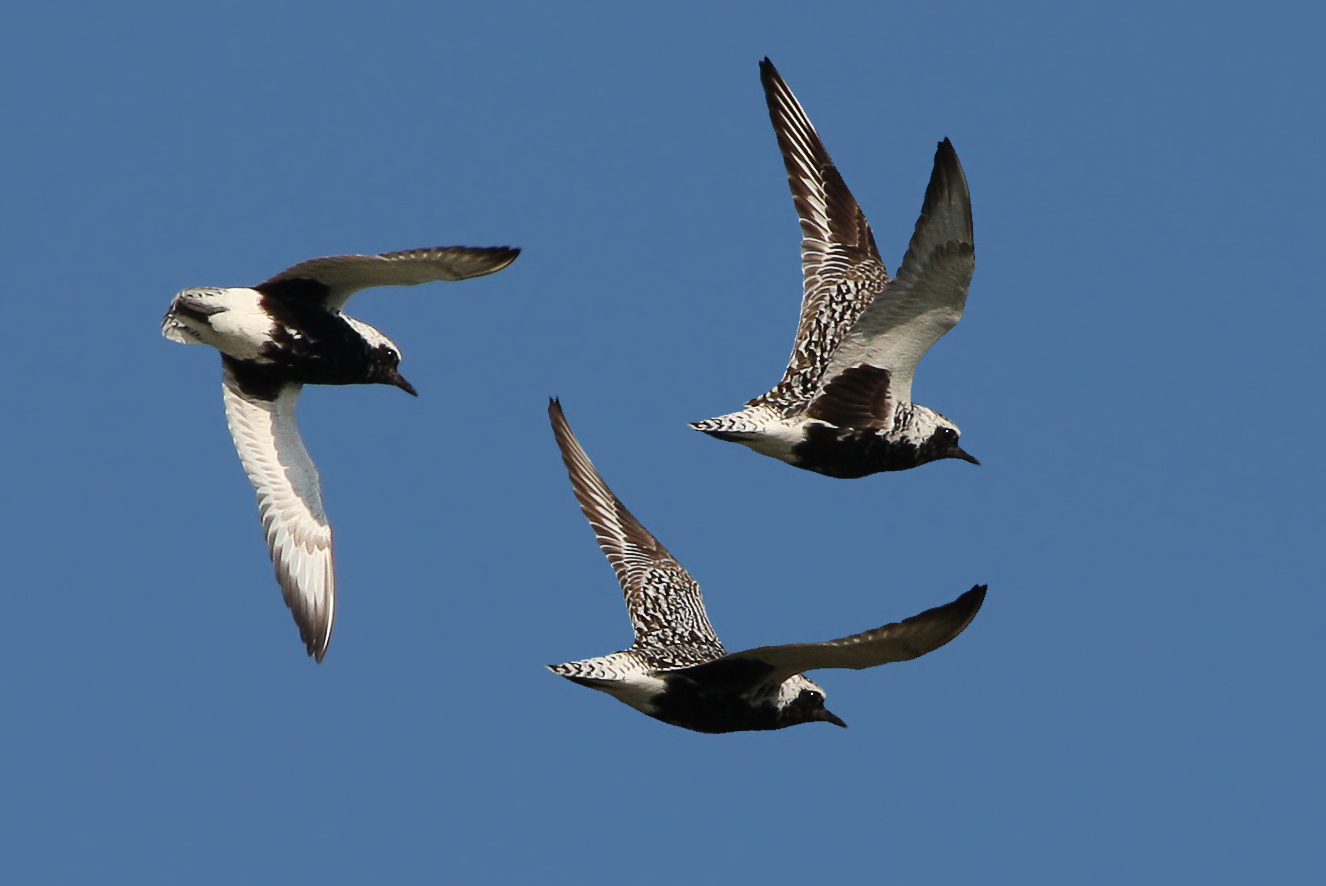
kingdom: Animalia
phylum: Chordata
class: Aves
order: Charadriiformes
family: Charadriidae
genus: Pluvialis
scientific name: Pluvialis squatarola
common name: Grey plover
